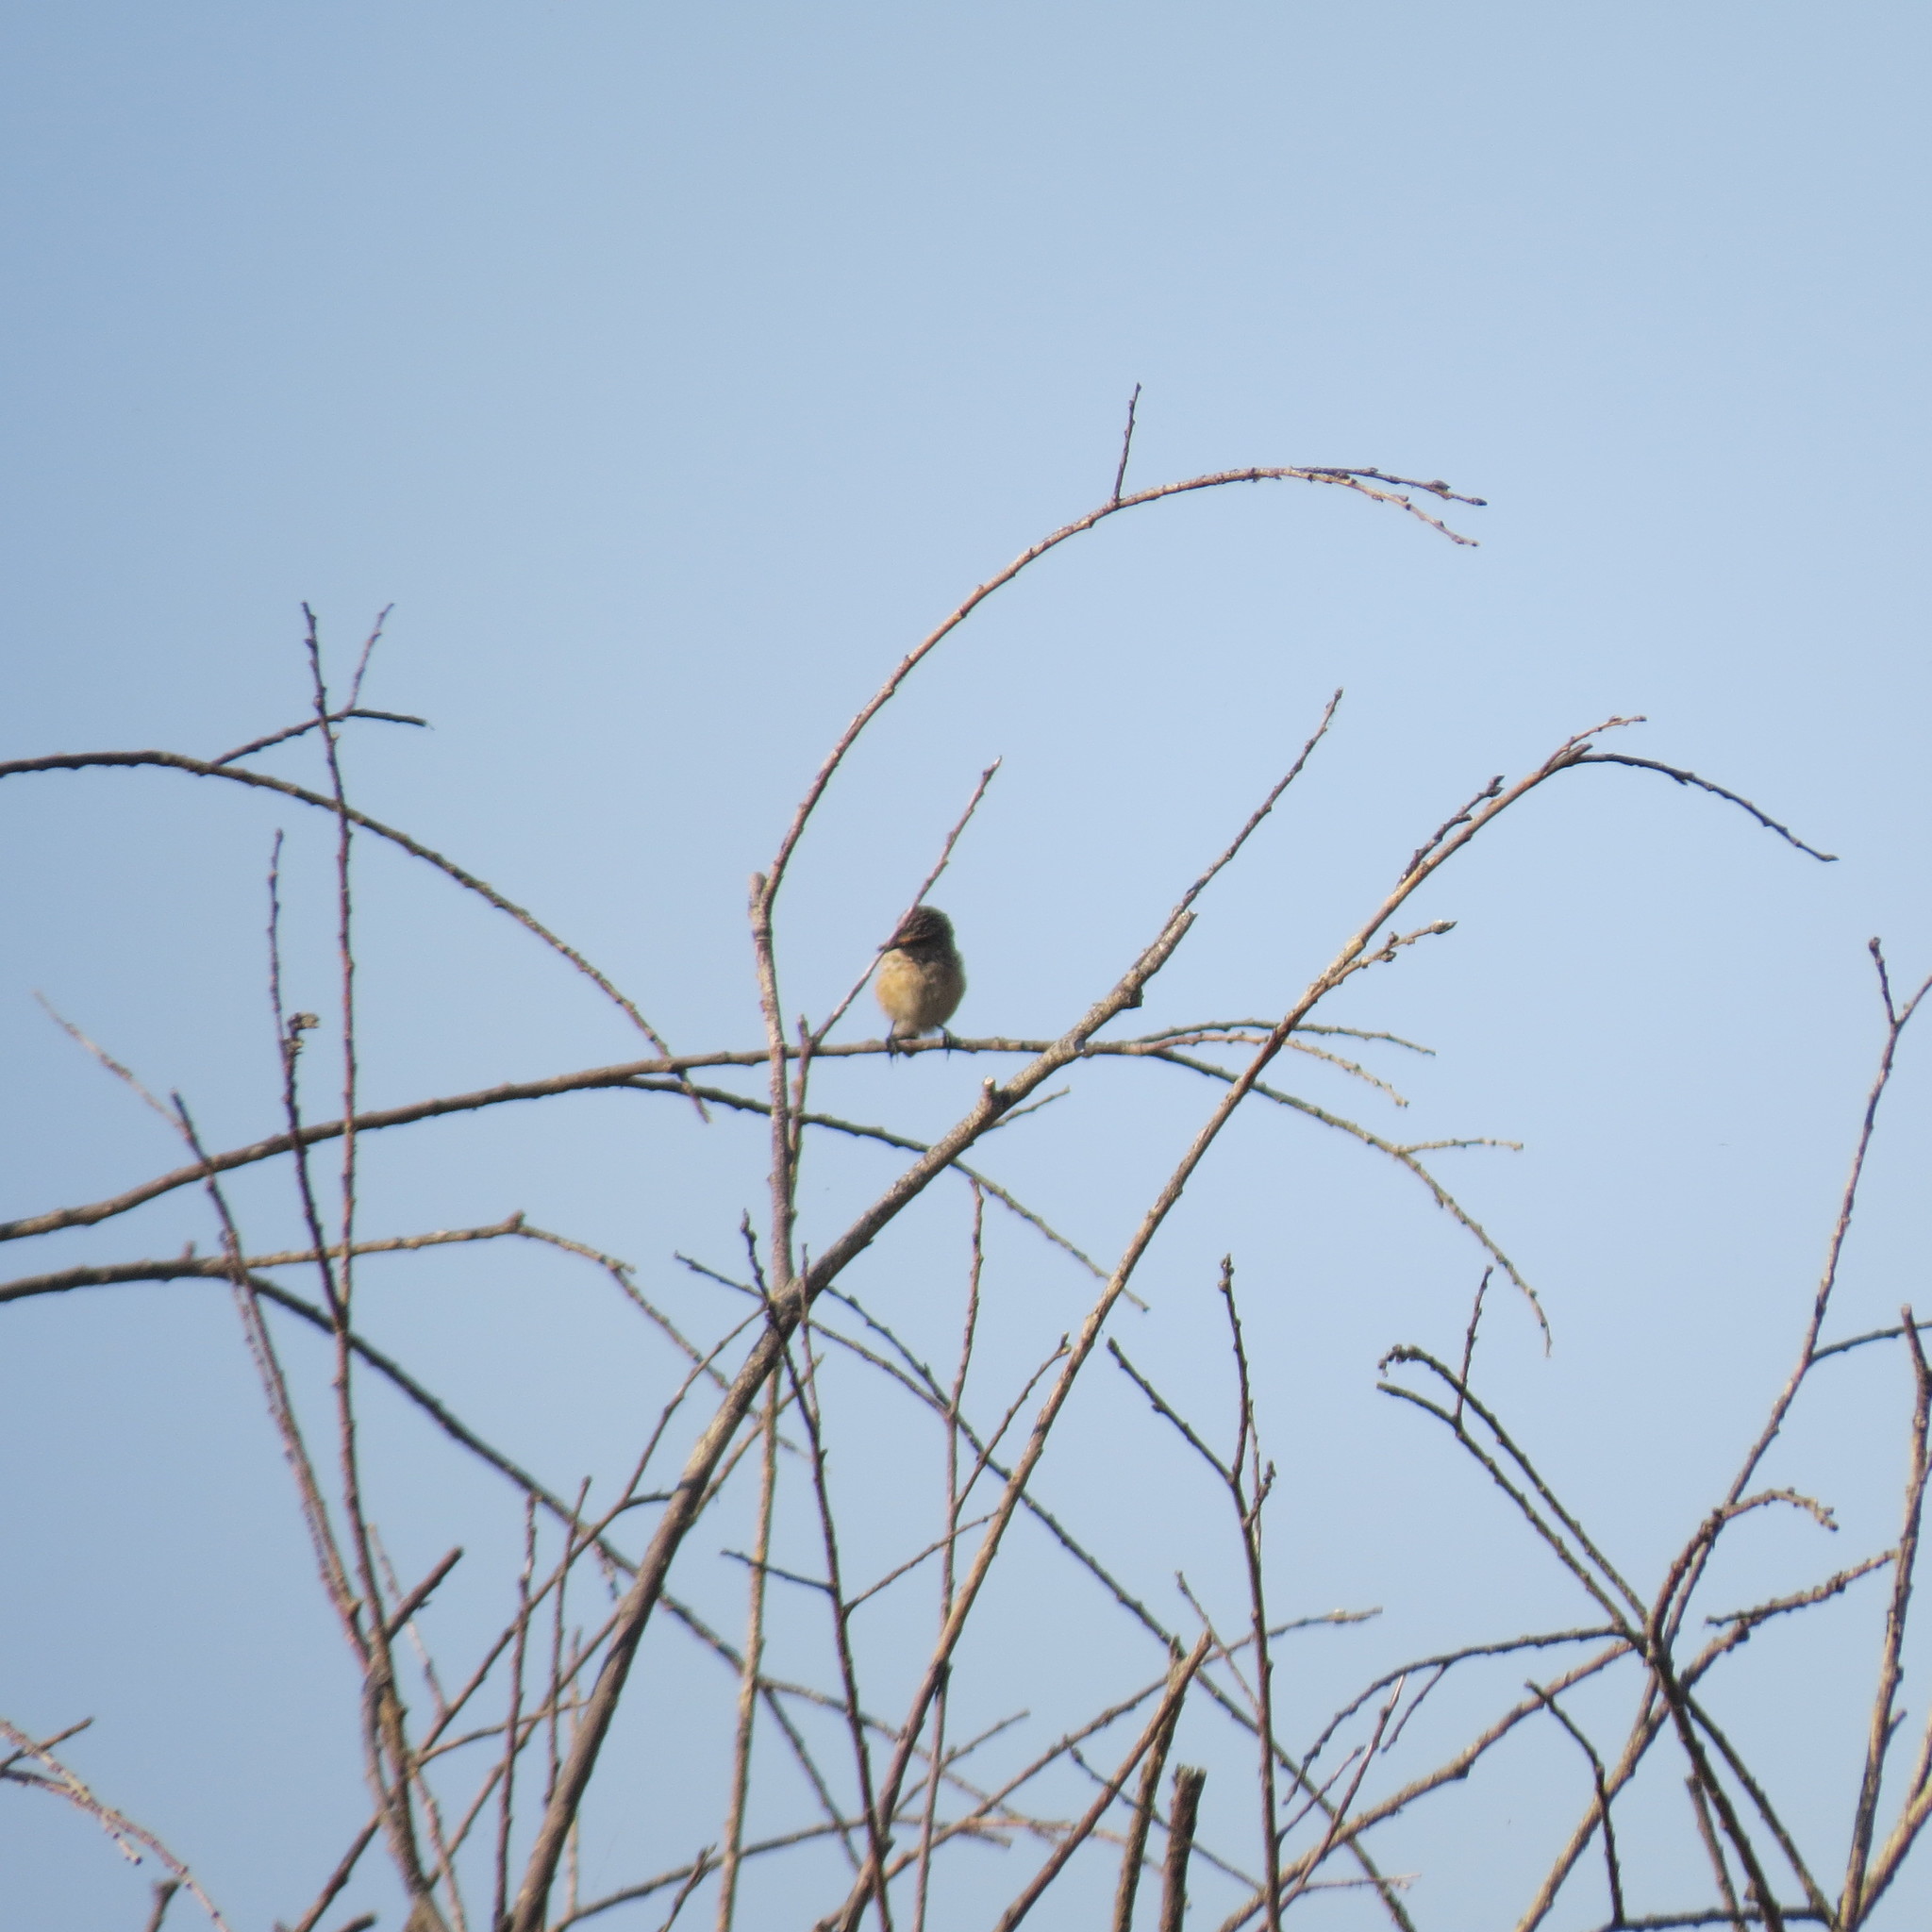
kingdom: Animalia
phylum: Chordata
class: Aves
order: Passeriformes
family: Muscicapidae
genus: Saxicola
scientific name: Saxicola maurus
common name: Siberian stonechat
